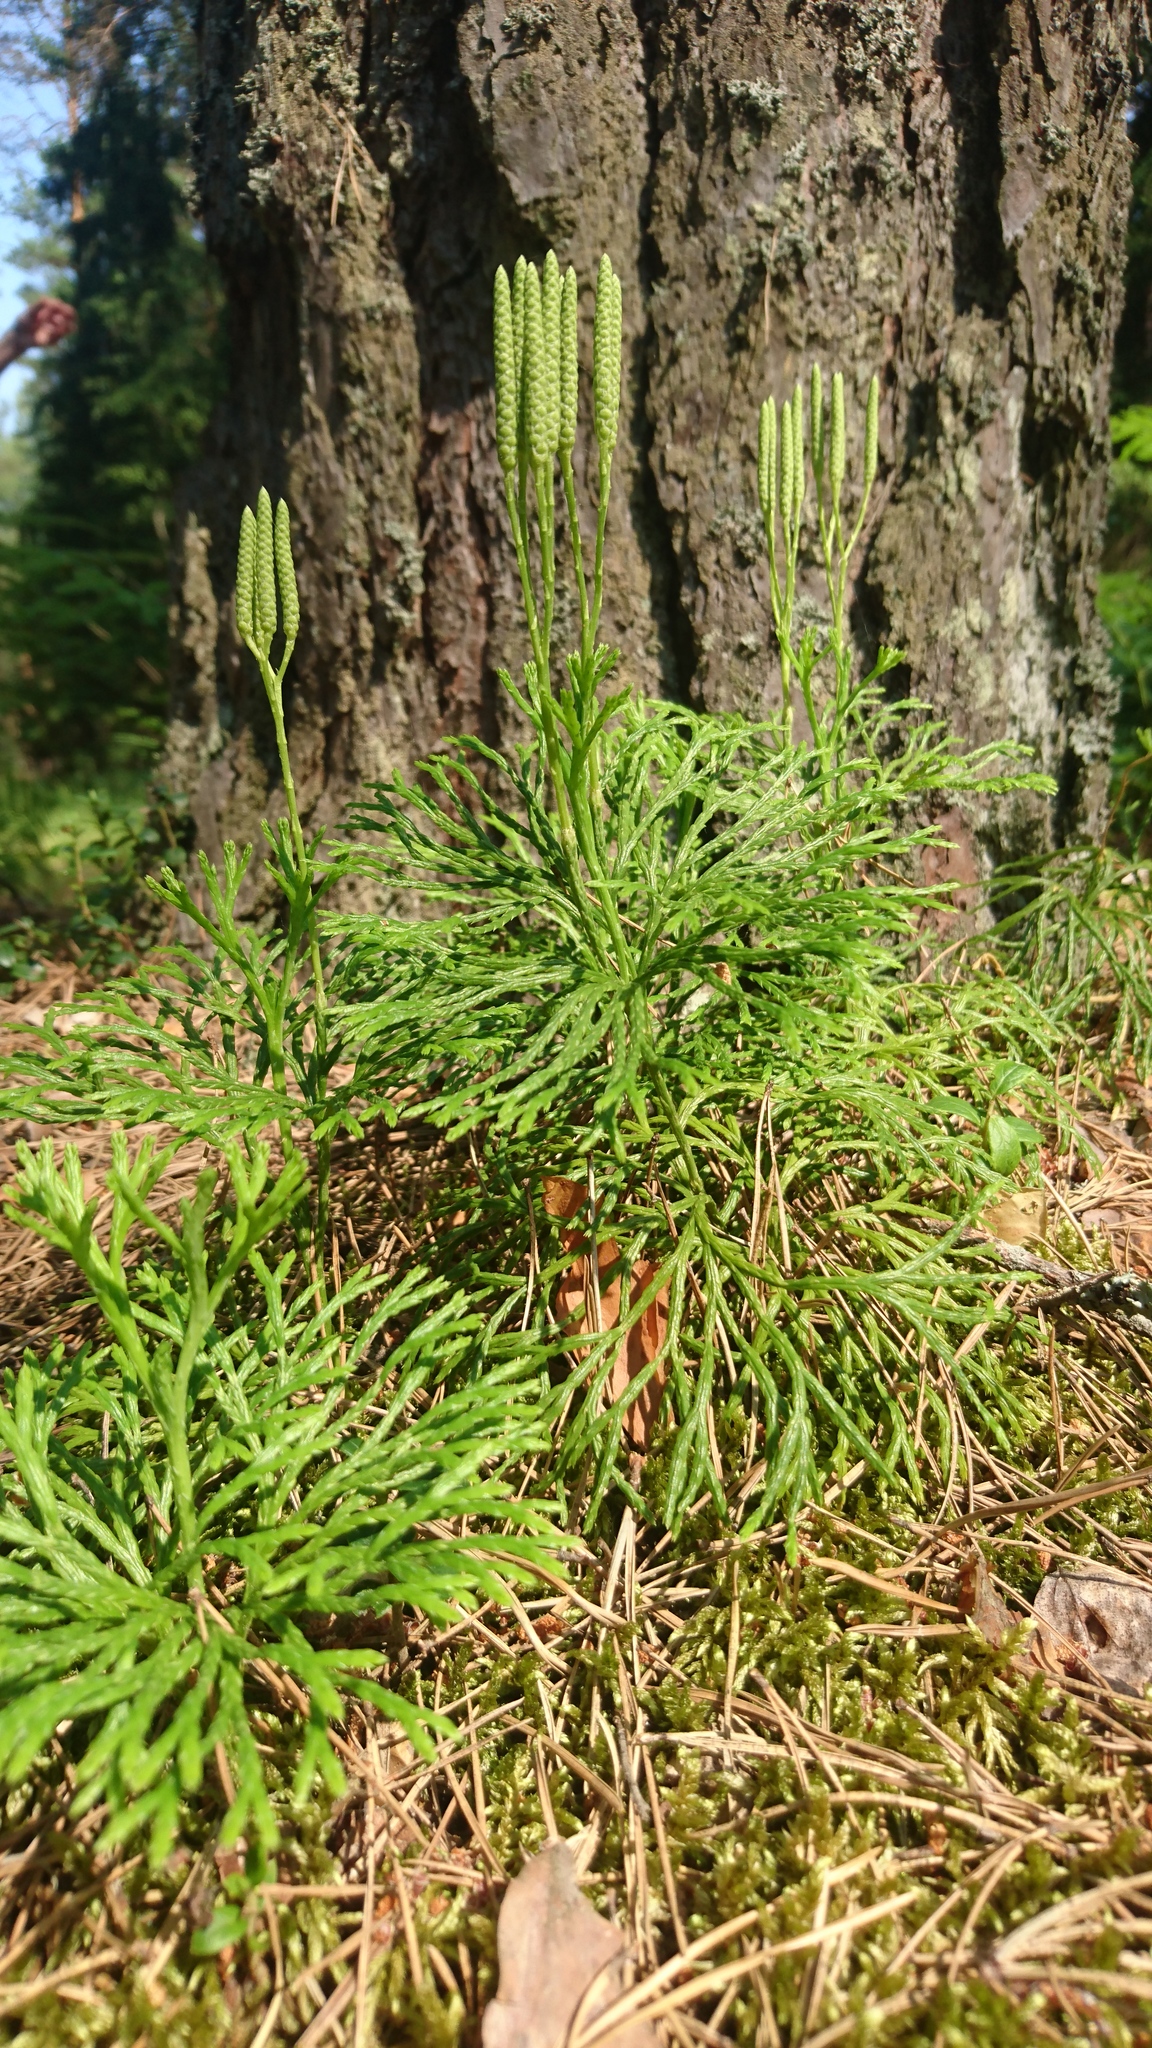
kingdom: Plantae
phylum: Tracheophyta
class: Lycopodiopsida
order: Lycopodiales
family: Lycopodiaceae
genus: Diphasiastrum
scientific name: Diphasiastrum complanatum
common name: Northern running-pine
